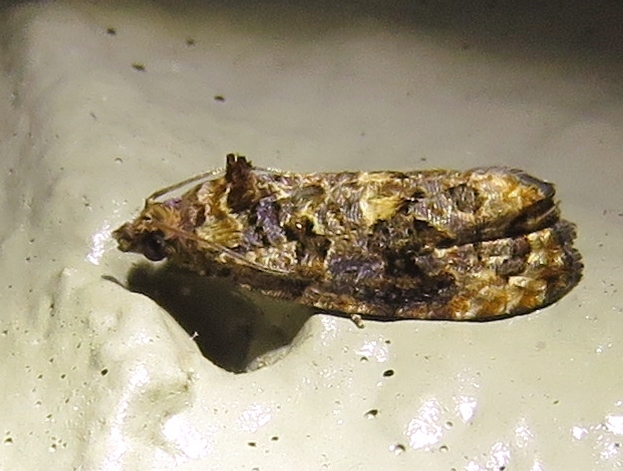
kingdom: Animalia
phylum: Arthropoda
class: Insecta
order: Lepidoptera
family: Tortricidae
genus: Endothenia
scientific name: Endothenia hebesana
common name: Verbena bud moth
